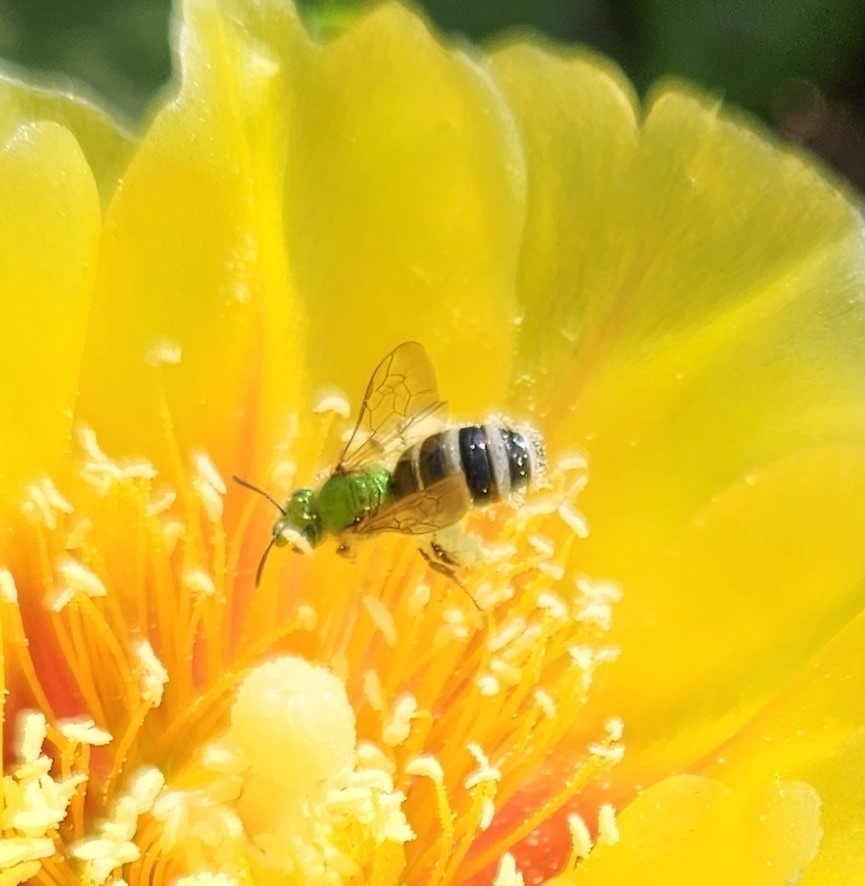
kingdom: Animalia
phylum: Arthropoda
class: Insecta
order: Hymenoptera
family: Halictidae
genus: Agapostemon
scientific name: Agapostemon virescens
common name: Bicolored striped sweat bee
